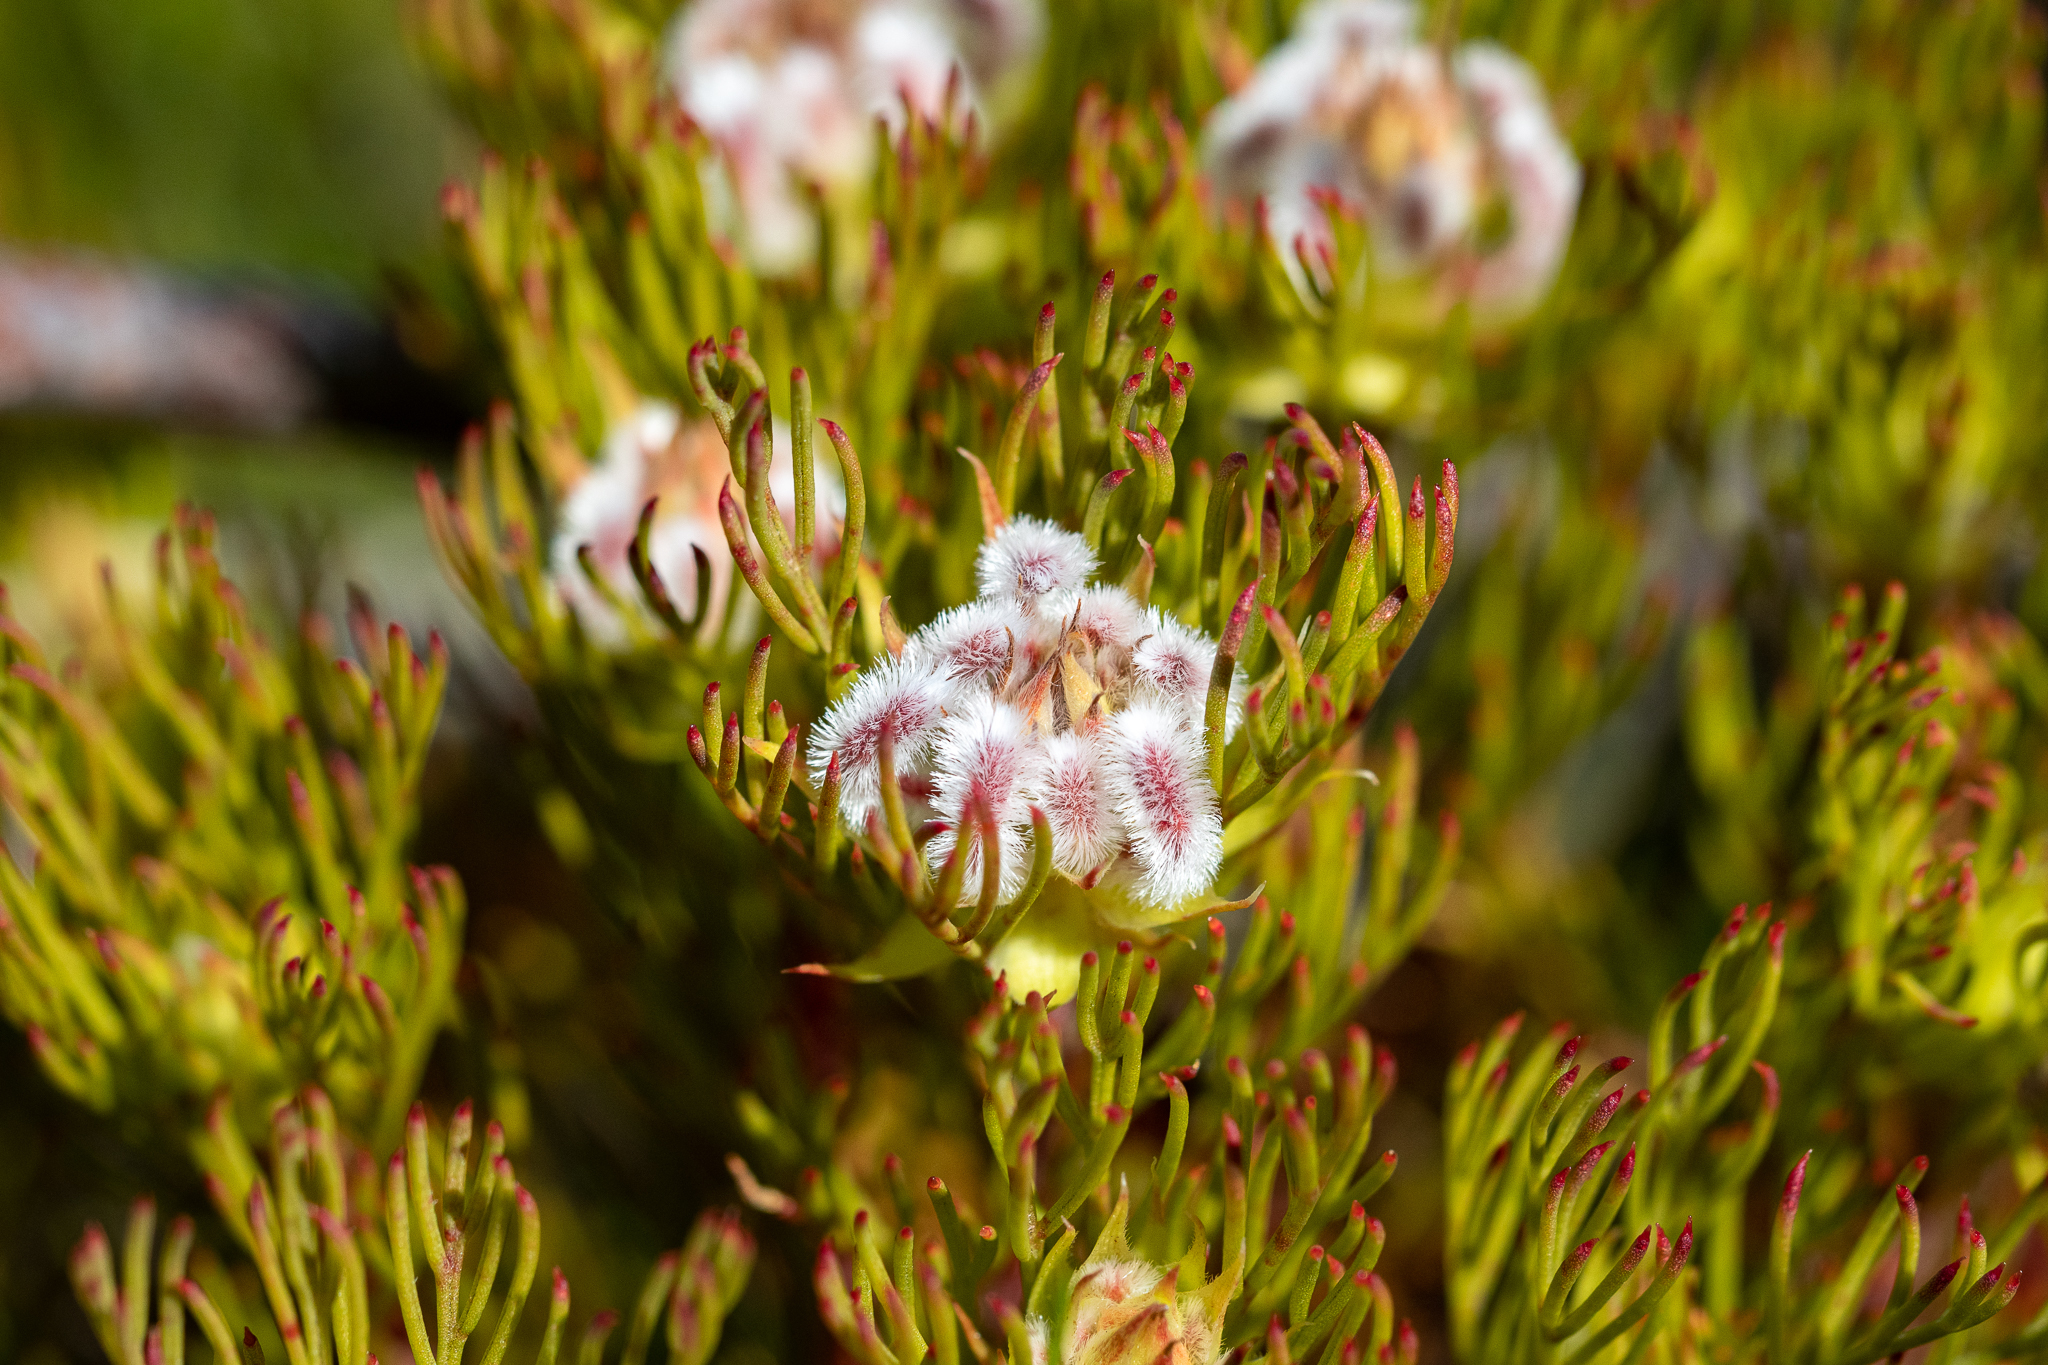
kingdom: Plantae
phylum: Tracheophyta
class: Magnoliopsida
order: Proteales
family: Proteaceae
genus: Serruria
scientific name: Serruria rostellaris
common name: Remote spiderhead
